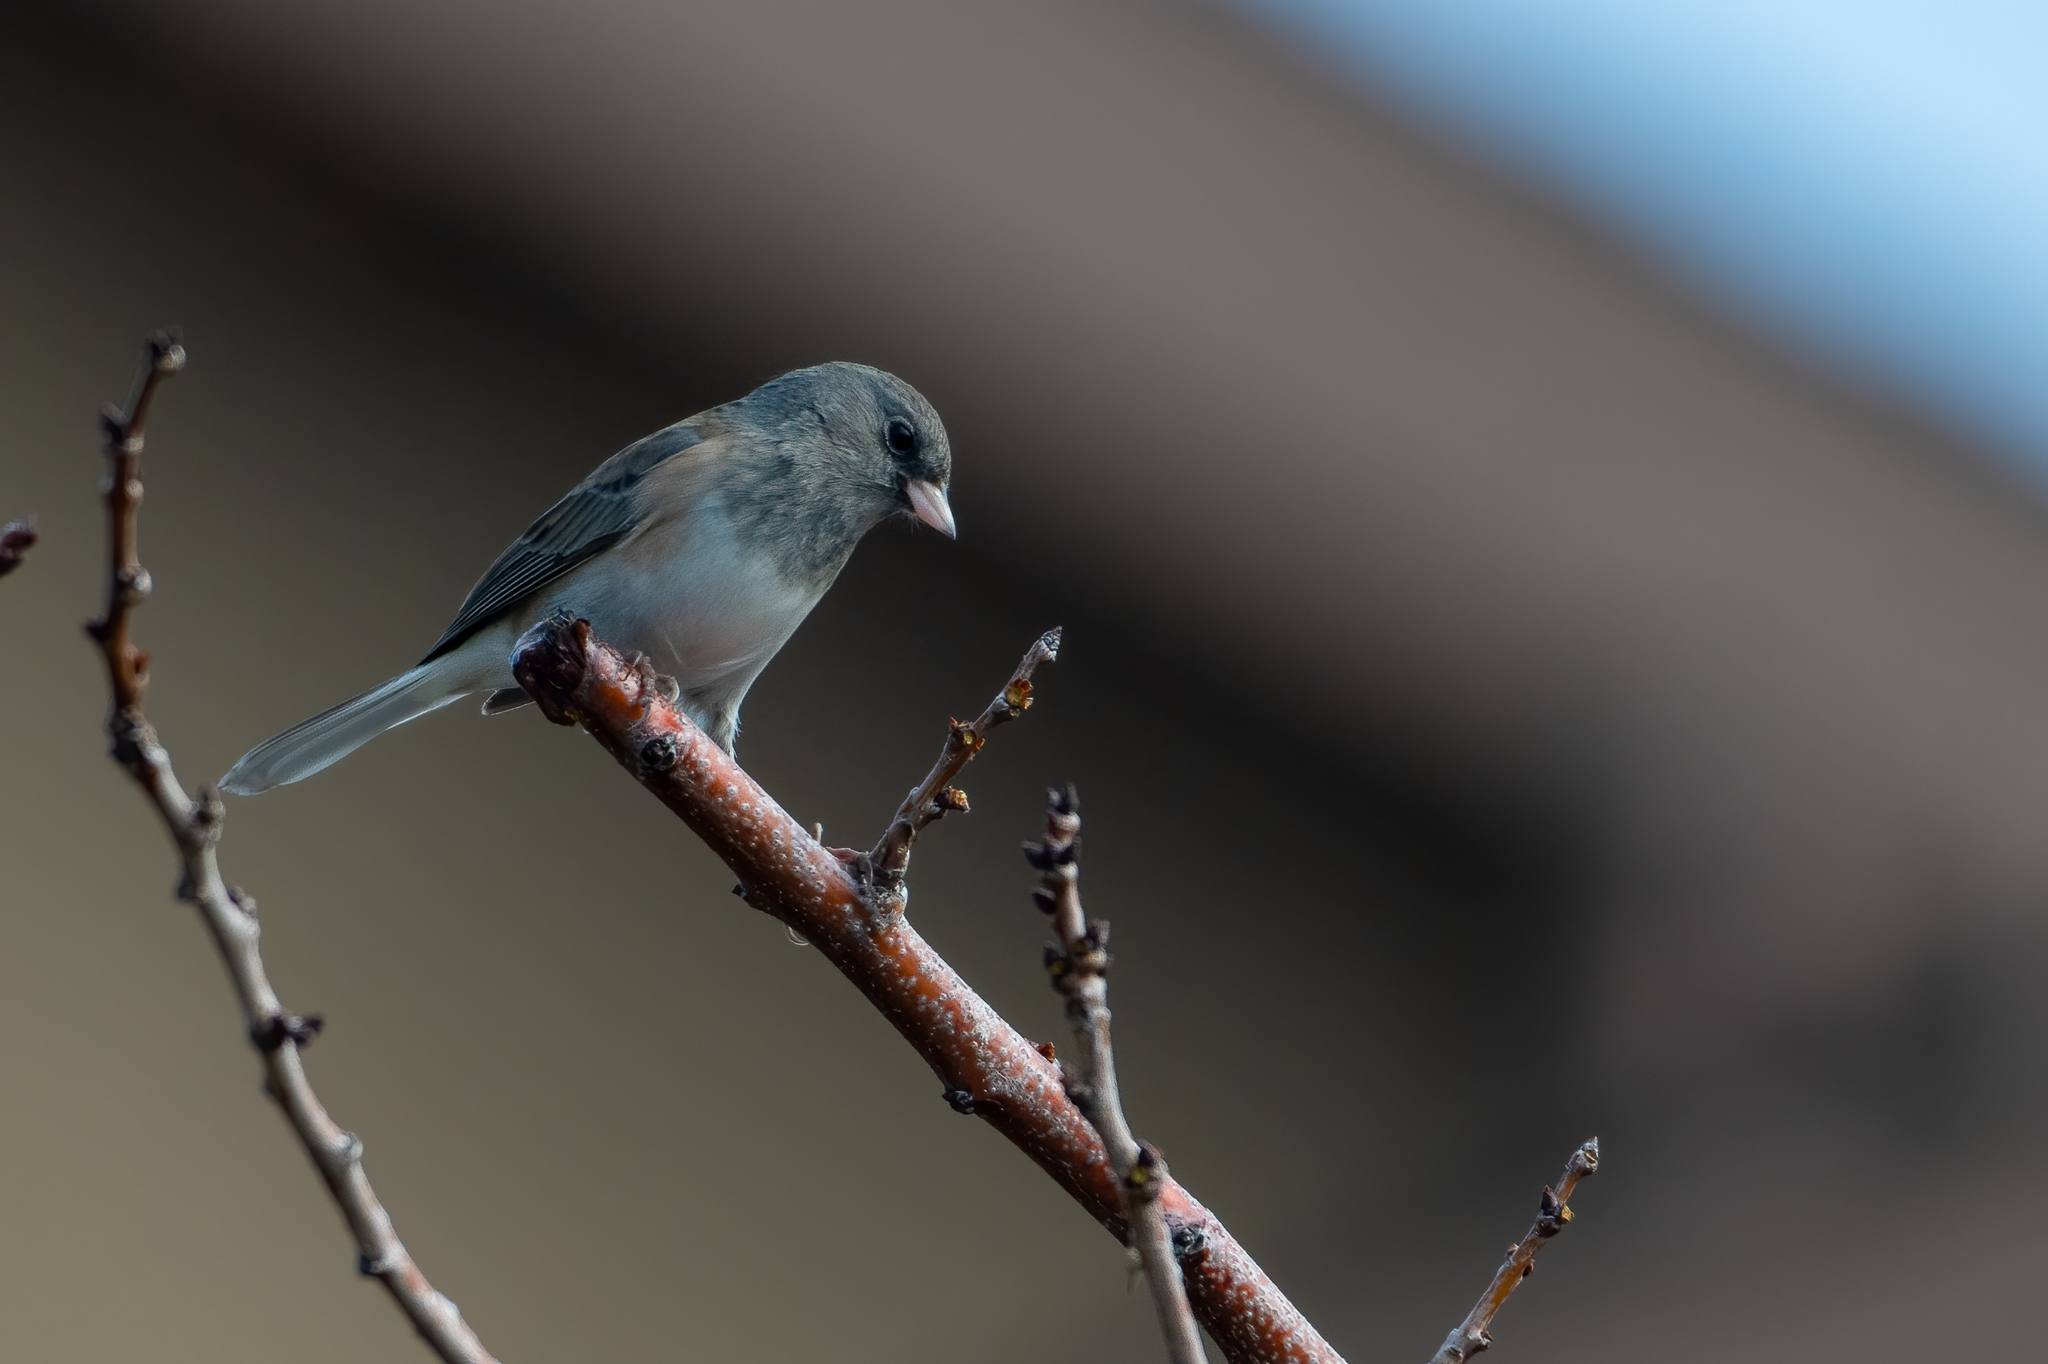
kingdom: Animalia
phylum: Chordata
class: Aves
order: Passeriformes
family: Passerellidae
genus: Junco
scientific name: Junco hyemalis
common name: Dark-eyed junco
